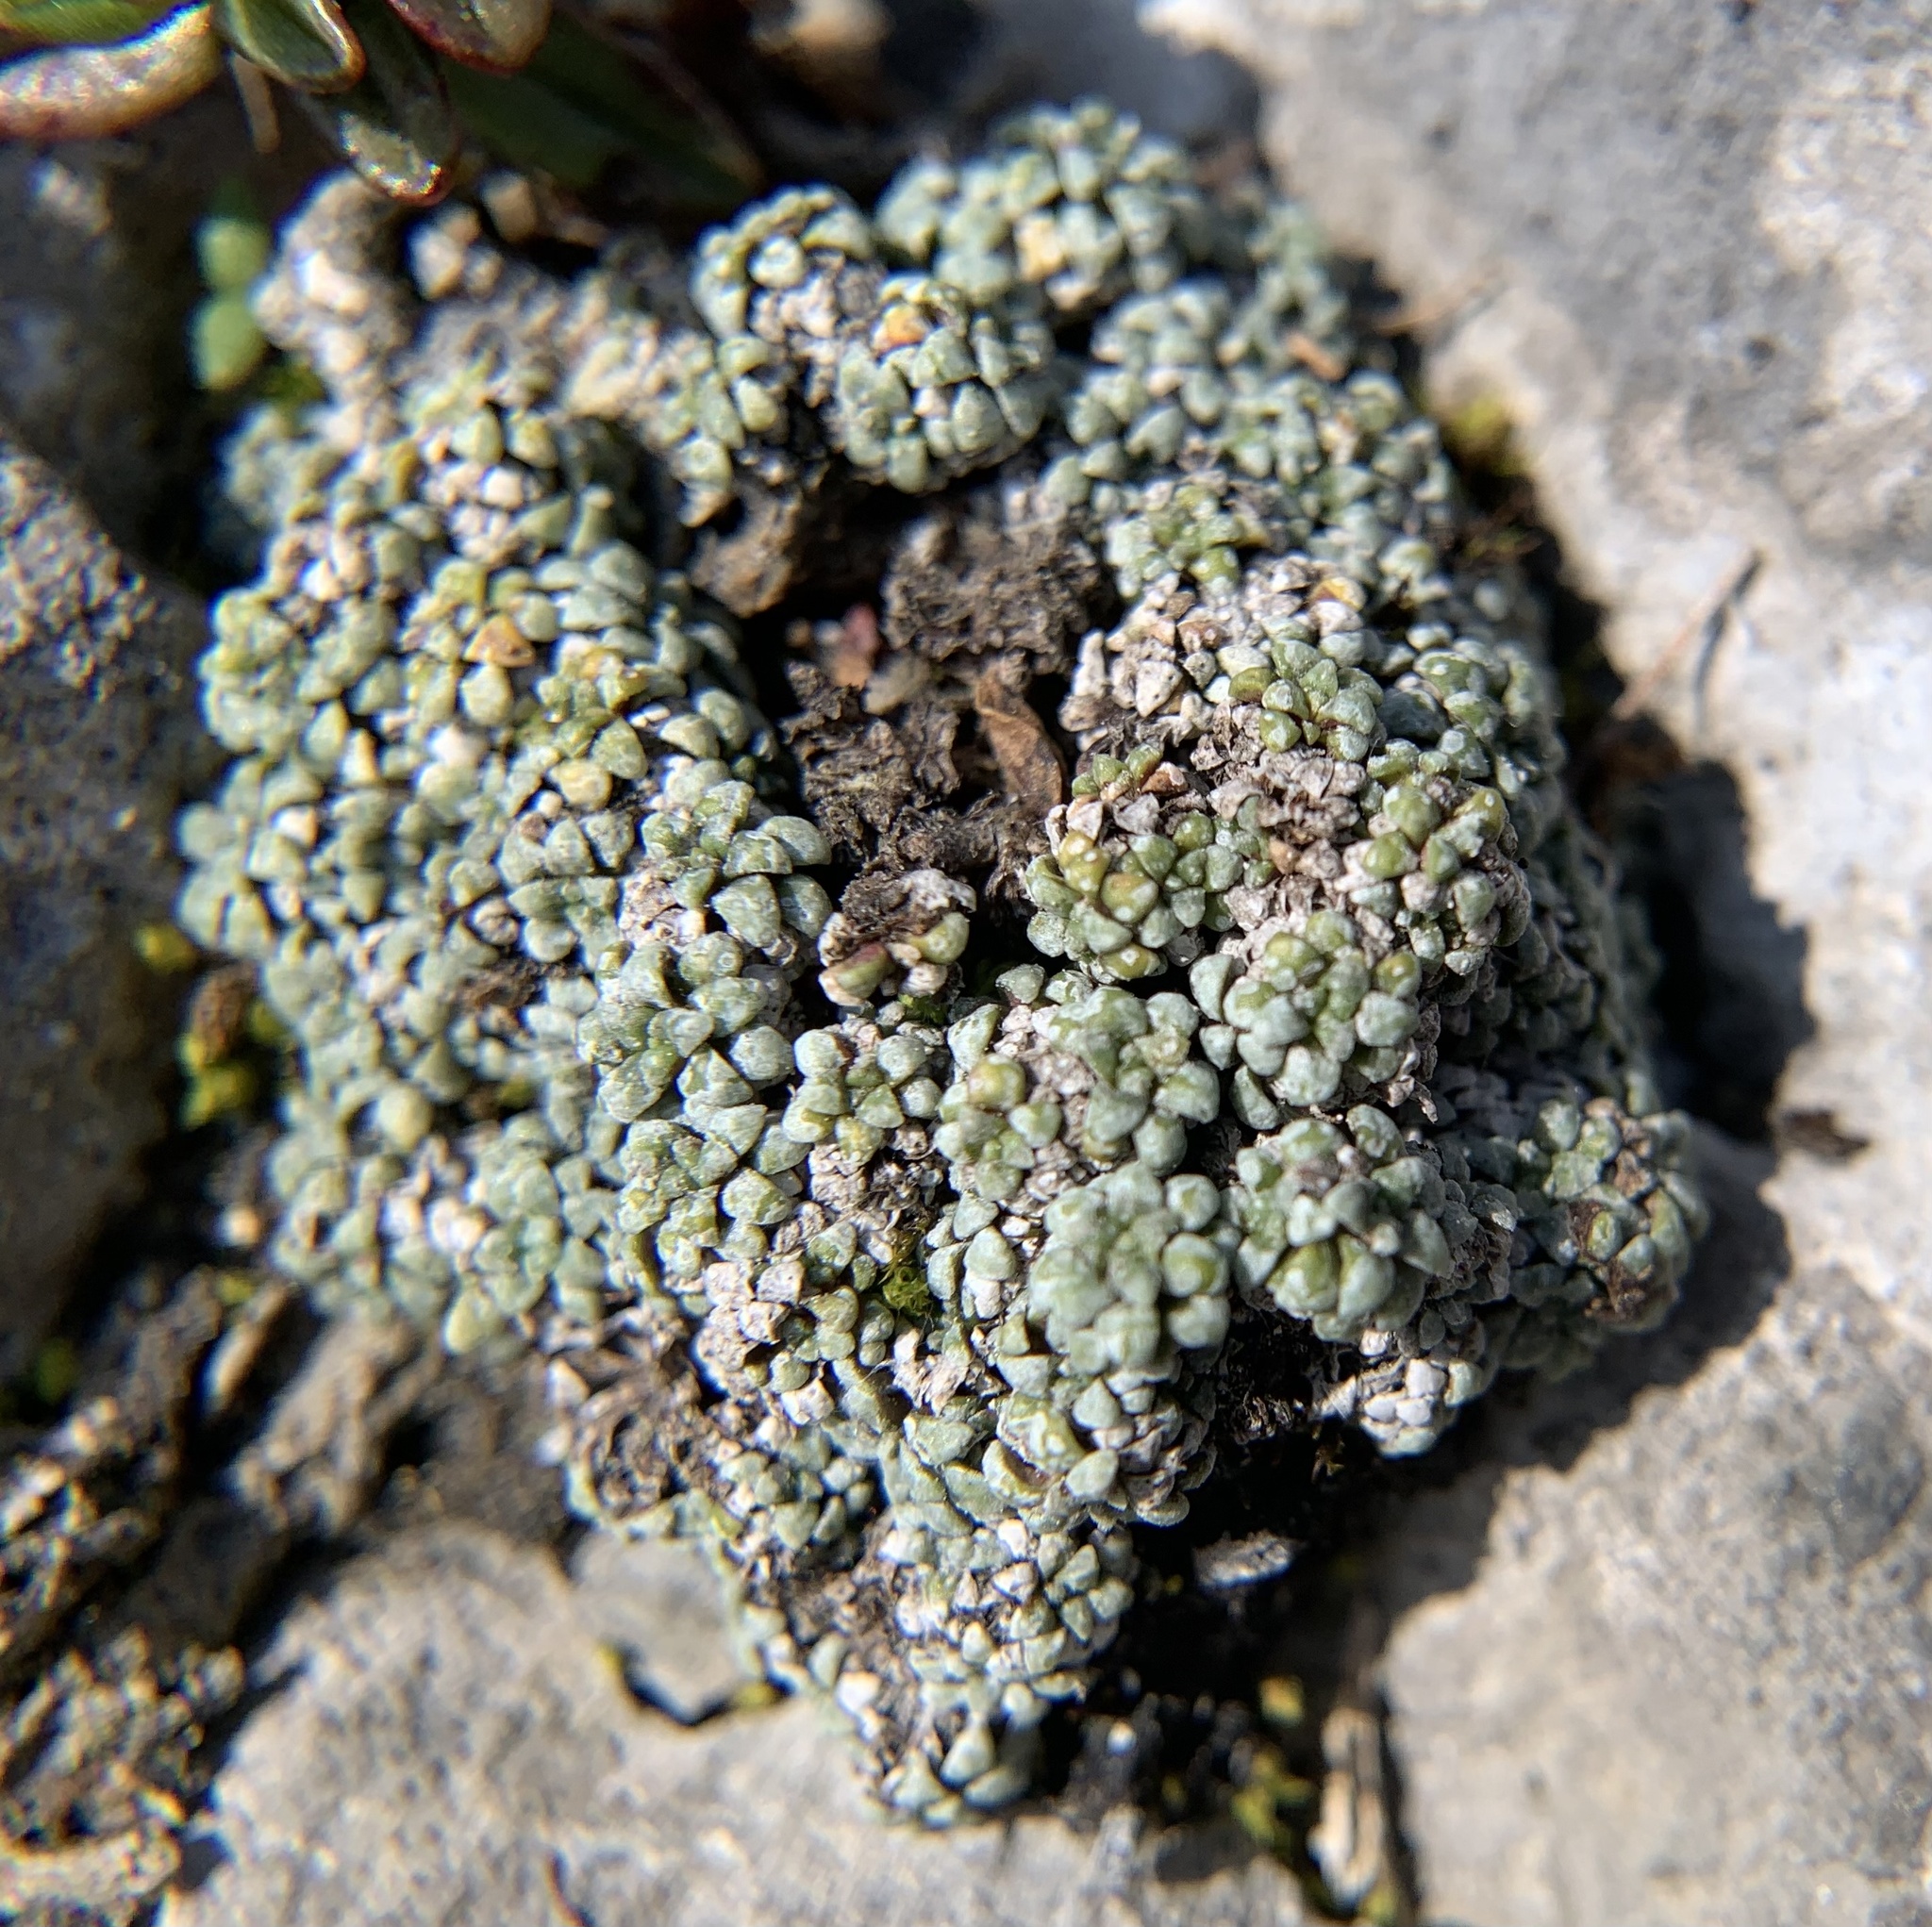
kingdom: Plantae
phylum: Tracheophyta
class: Magnoliopsida
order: Saxifragales
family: Saxifragaceae
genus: Saxifraga
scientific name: Saxifraga caesia
